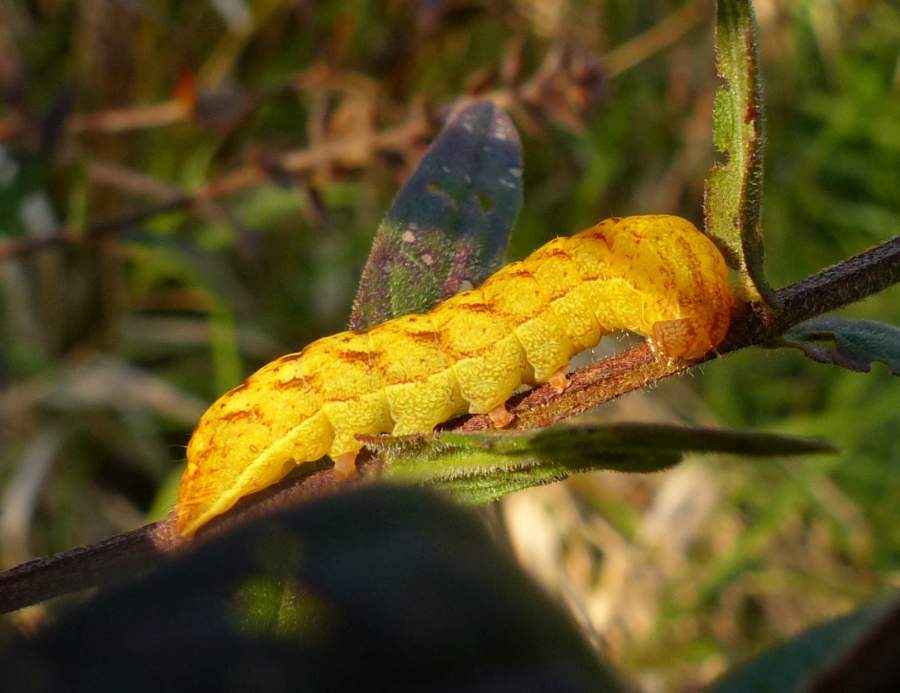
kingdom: Animalia
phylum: Arthropoda
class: Insecta
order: Lepidoptera
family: Noctuidae
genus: Spiramater
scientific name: Spiramater lutra
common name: Otter spiramater moth
